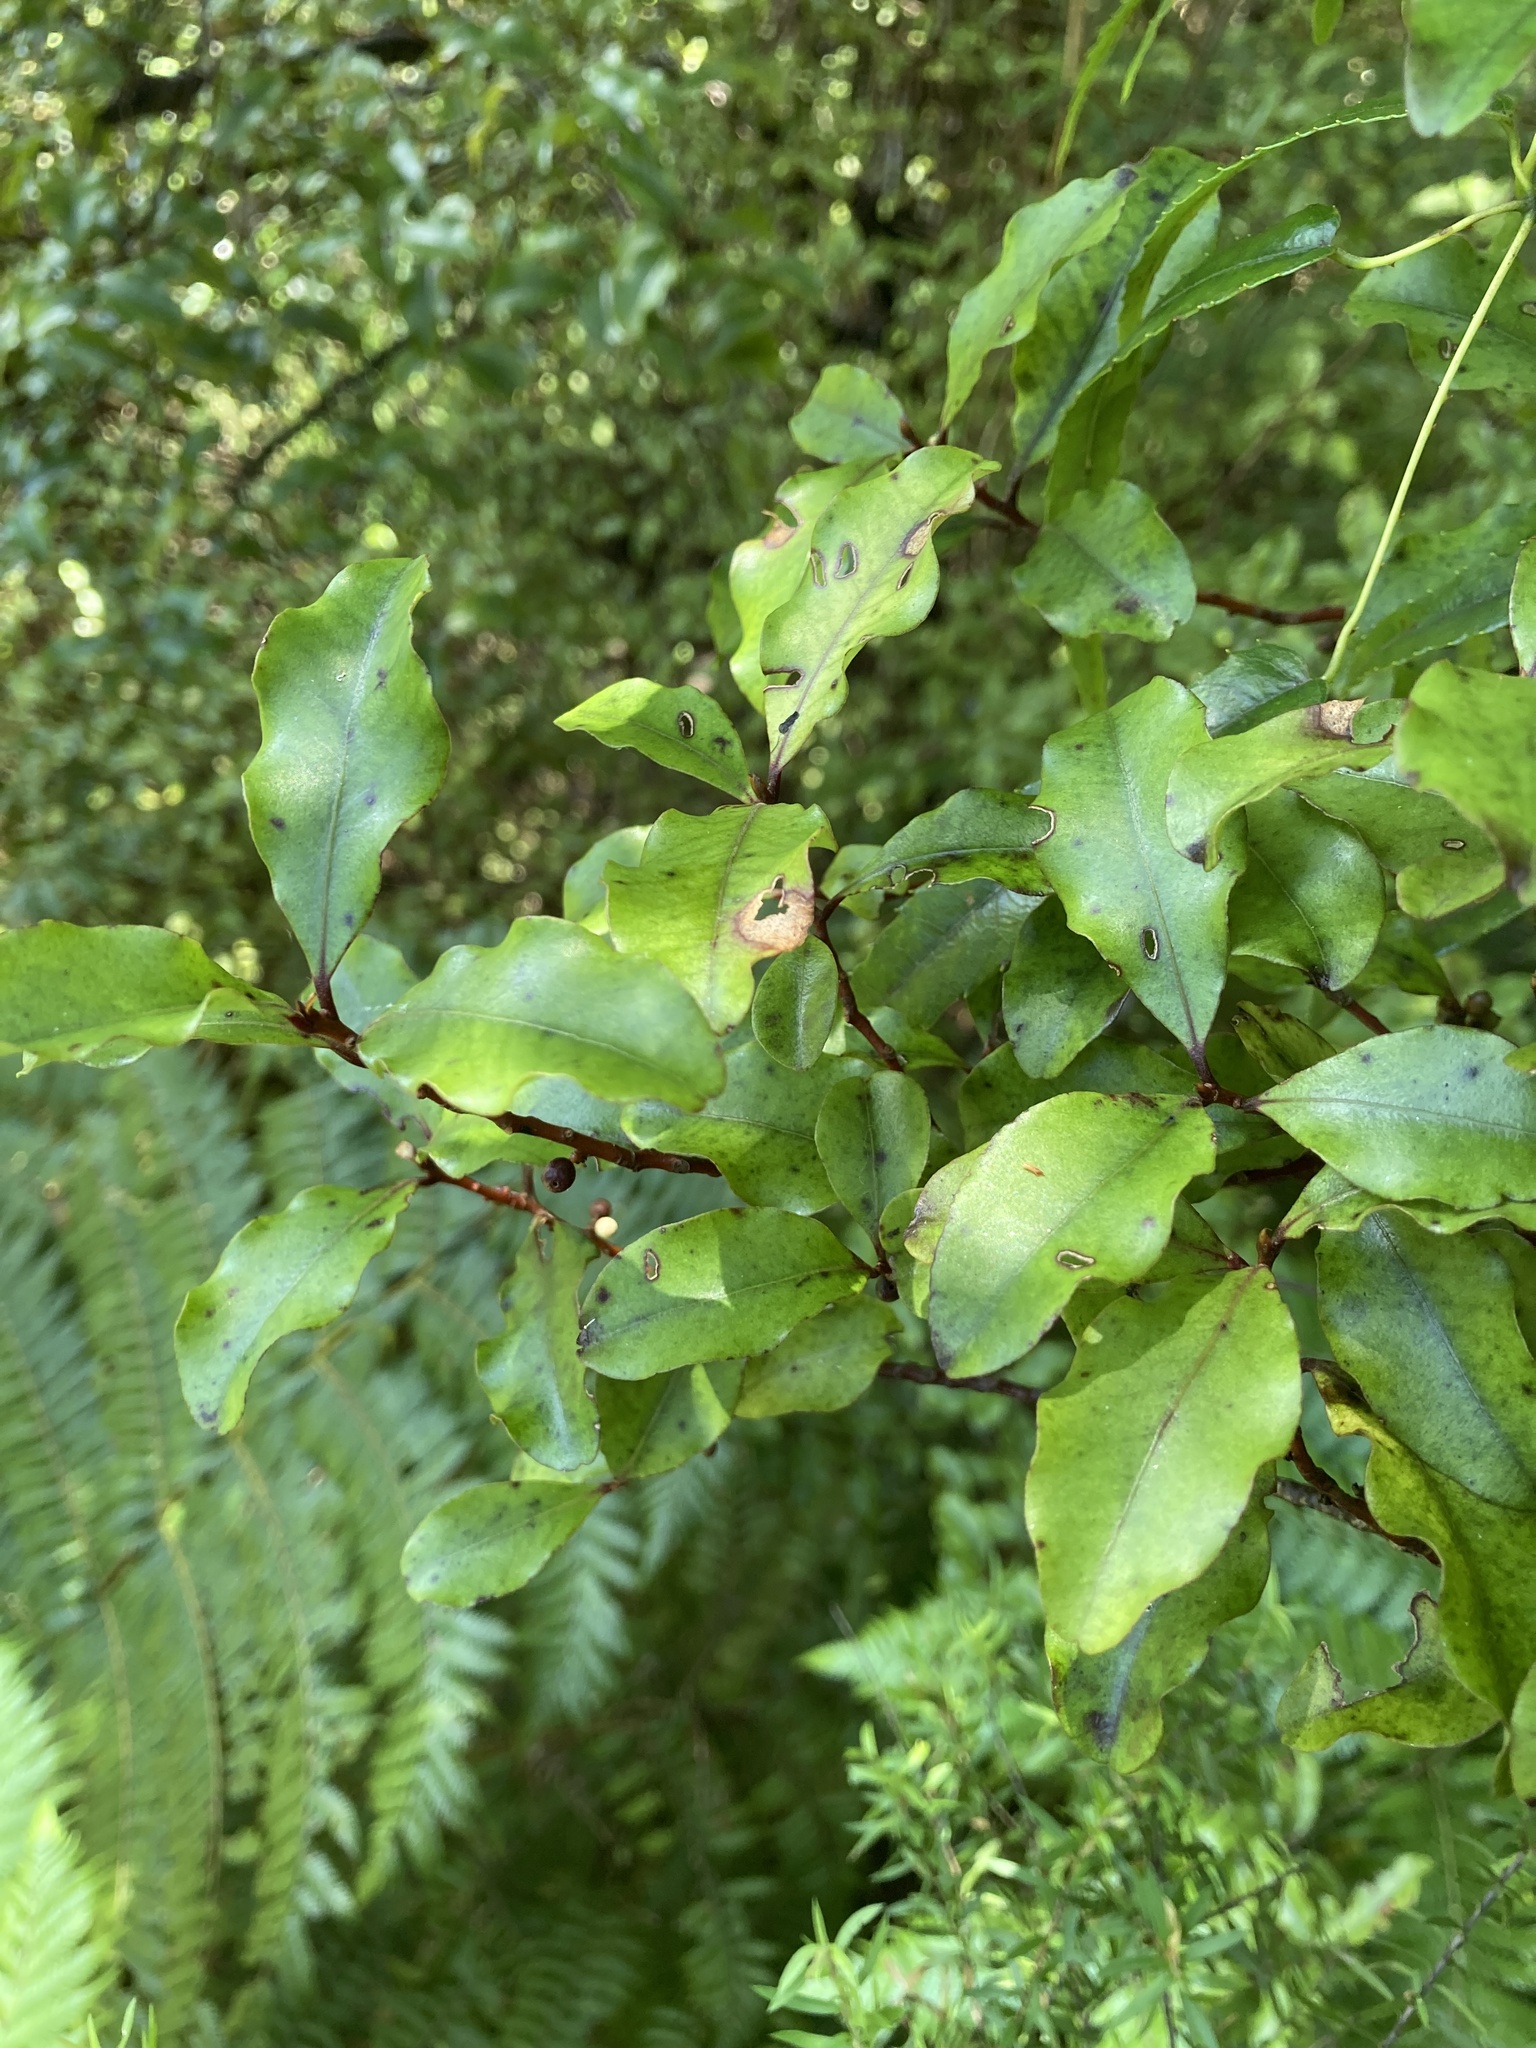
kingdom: Plantae
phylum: Tracheophyta
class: Magnoliopsida
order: Ericales
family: Primulaceae
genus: Myrsine
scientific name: Myrsine australis
